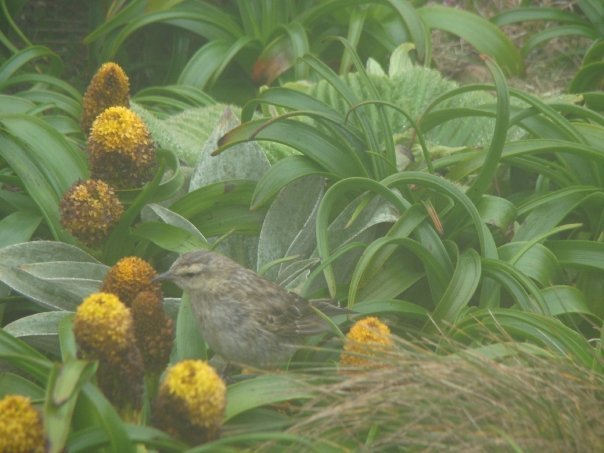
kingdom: Animalia
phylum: Chordata
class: Aves
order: Passeriformes
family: Motacillidae
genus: Anthus
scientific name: Anthus novaeseelandiae
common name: New zealand pipit
